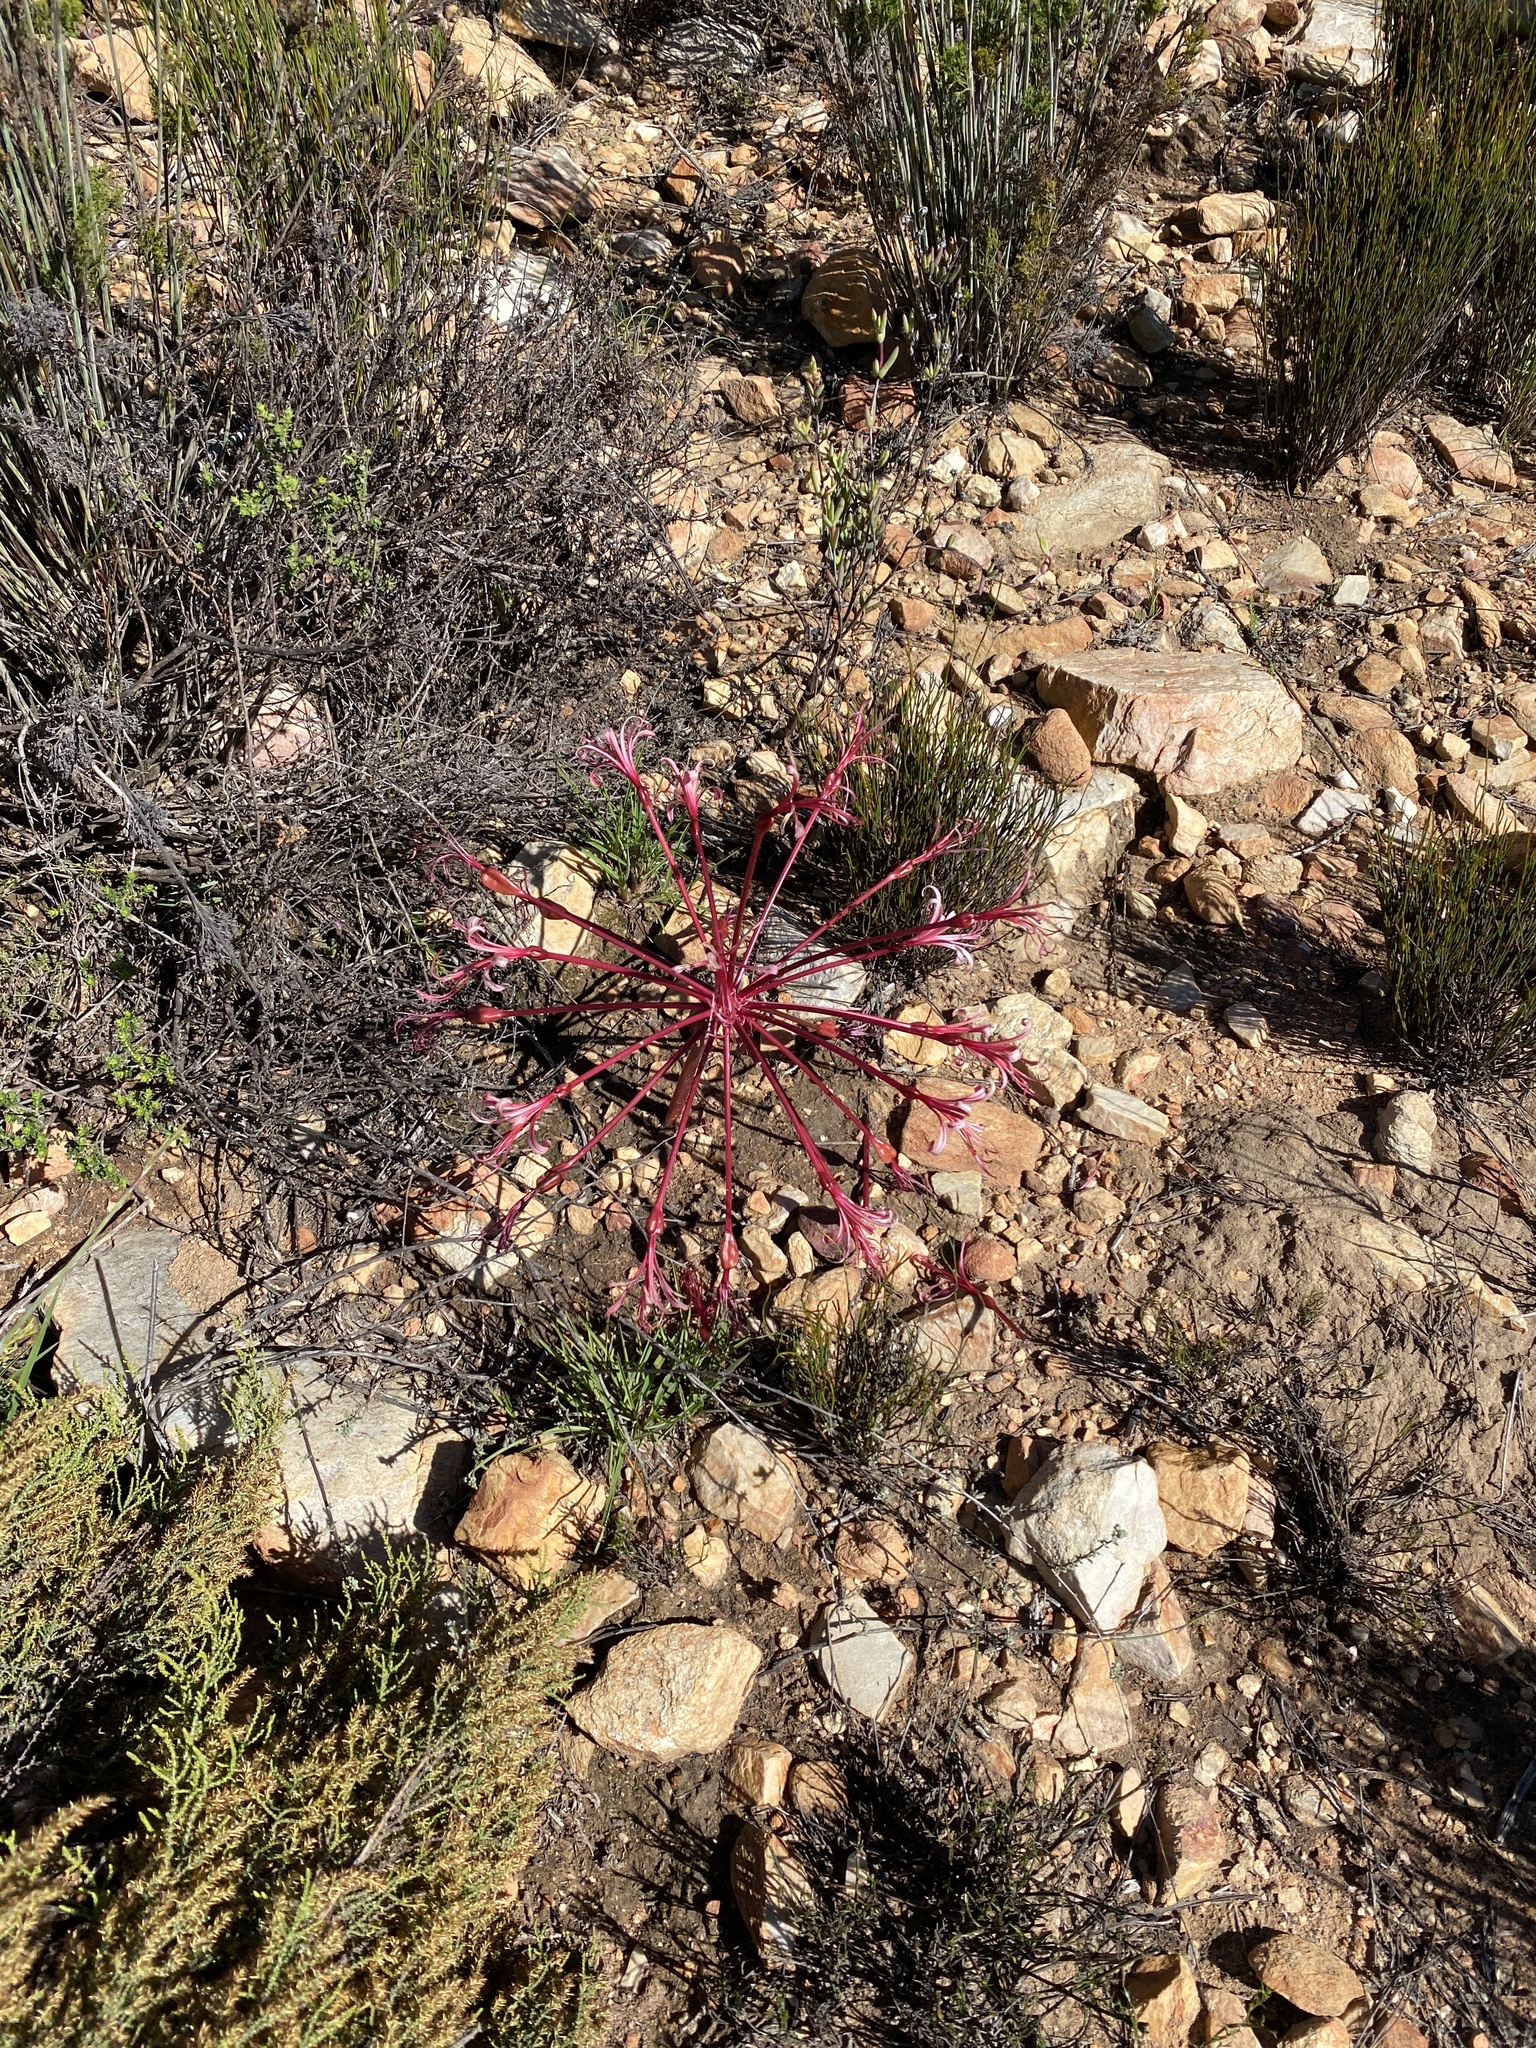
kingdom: Plantae
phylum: Tracheophyta
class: Liliopsida
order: Asparagales
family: Amaryllidaceae
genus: Brunsvigia
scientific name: Brunsvigia nervosa
